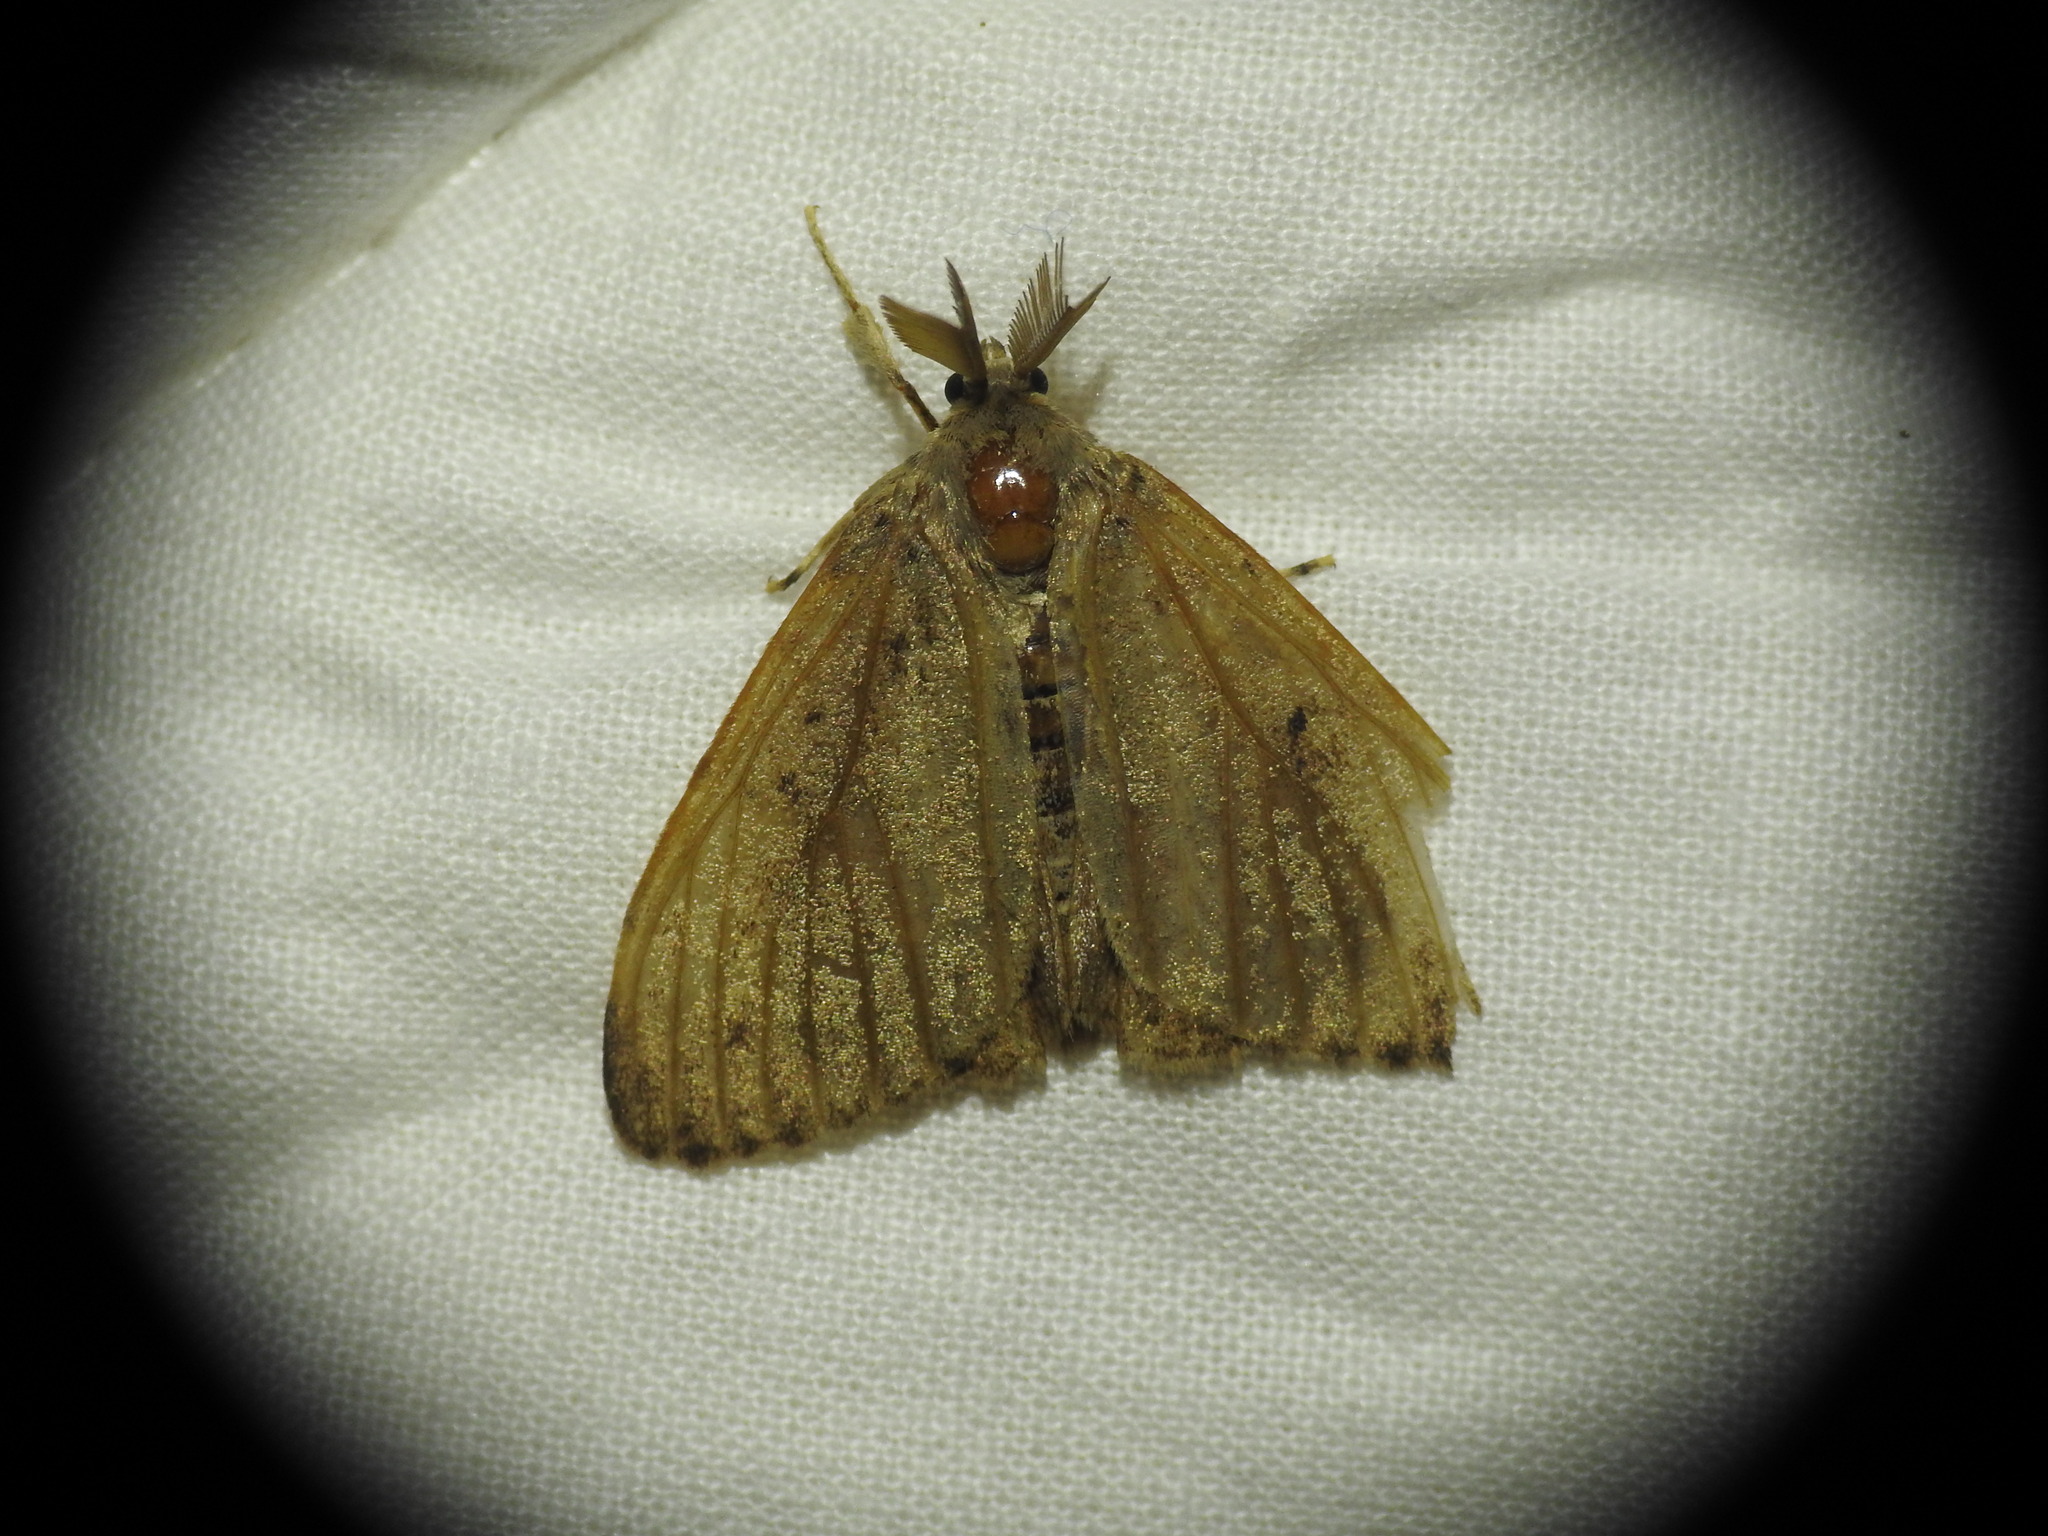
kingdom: Animalia
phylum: Arthropoda
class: Insecta
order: Lepidoptera
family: Erebidae
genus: Lymantria
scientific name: Lymantria dispar
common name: Gypsy moth
